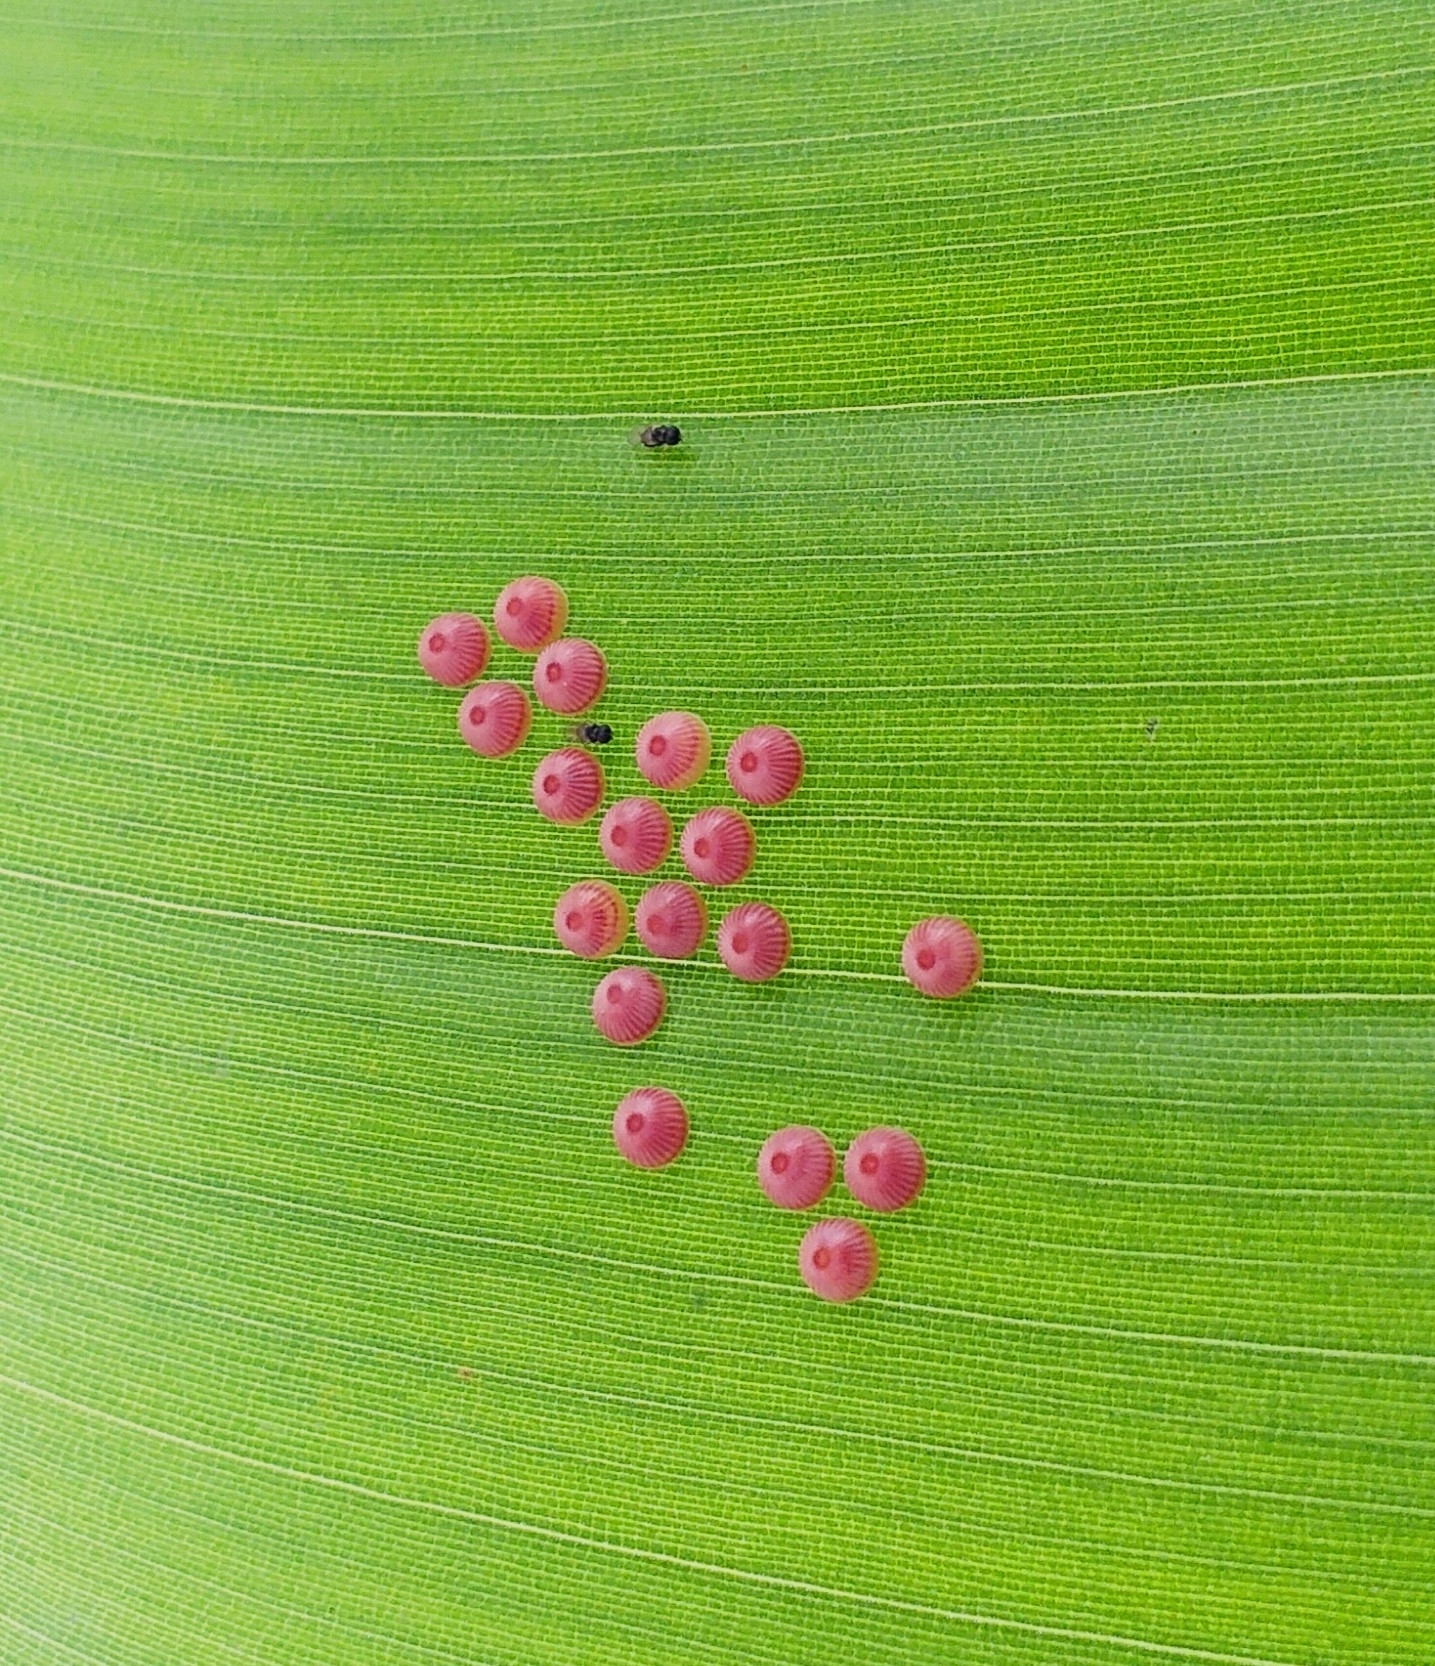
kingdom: Animalia
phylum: Arthropoda
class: Insecta
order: Lepidoptera
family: Hesperiidae
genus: Erionota
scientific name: Erionota torus
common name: Rounded palm-redeye
